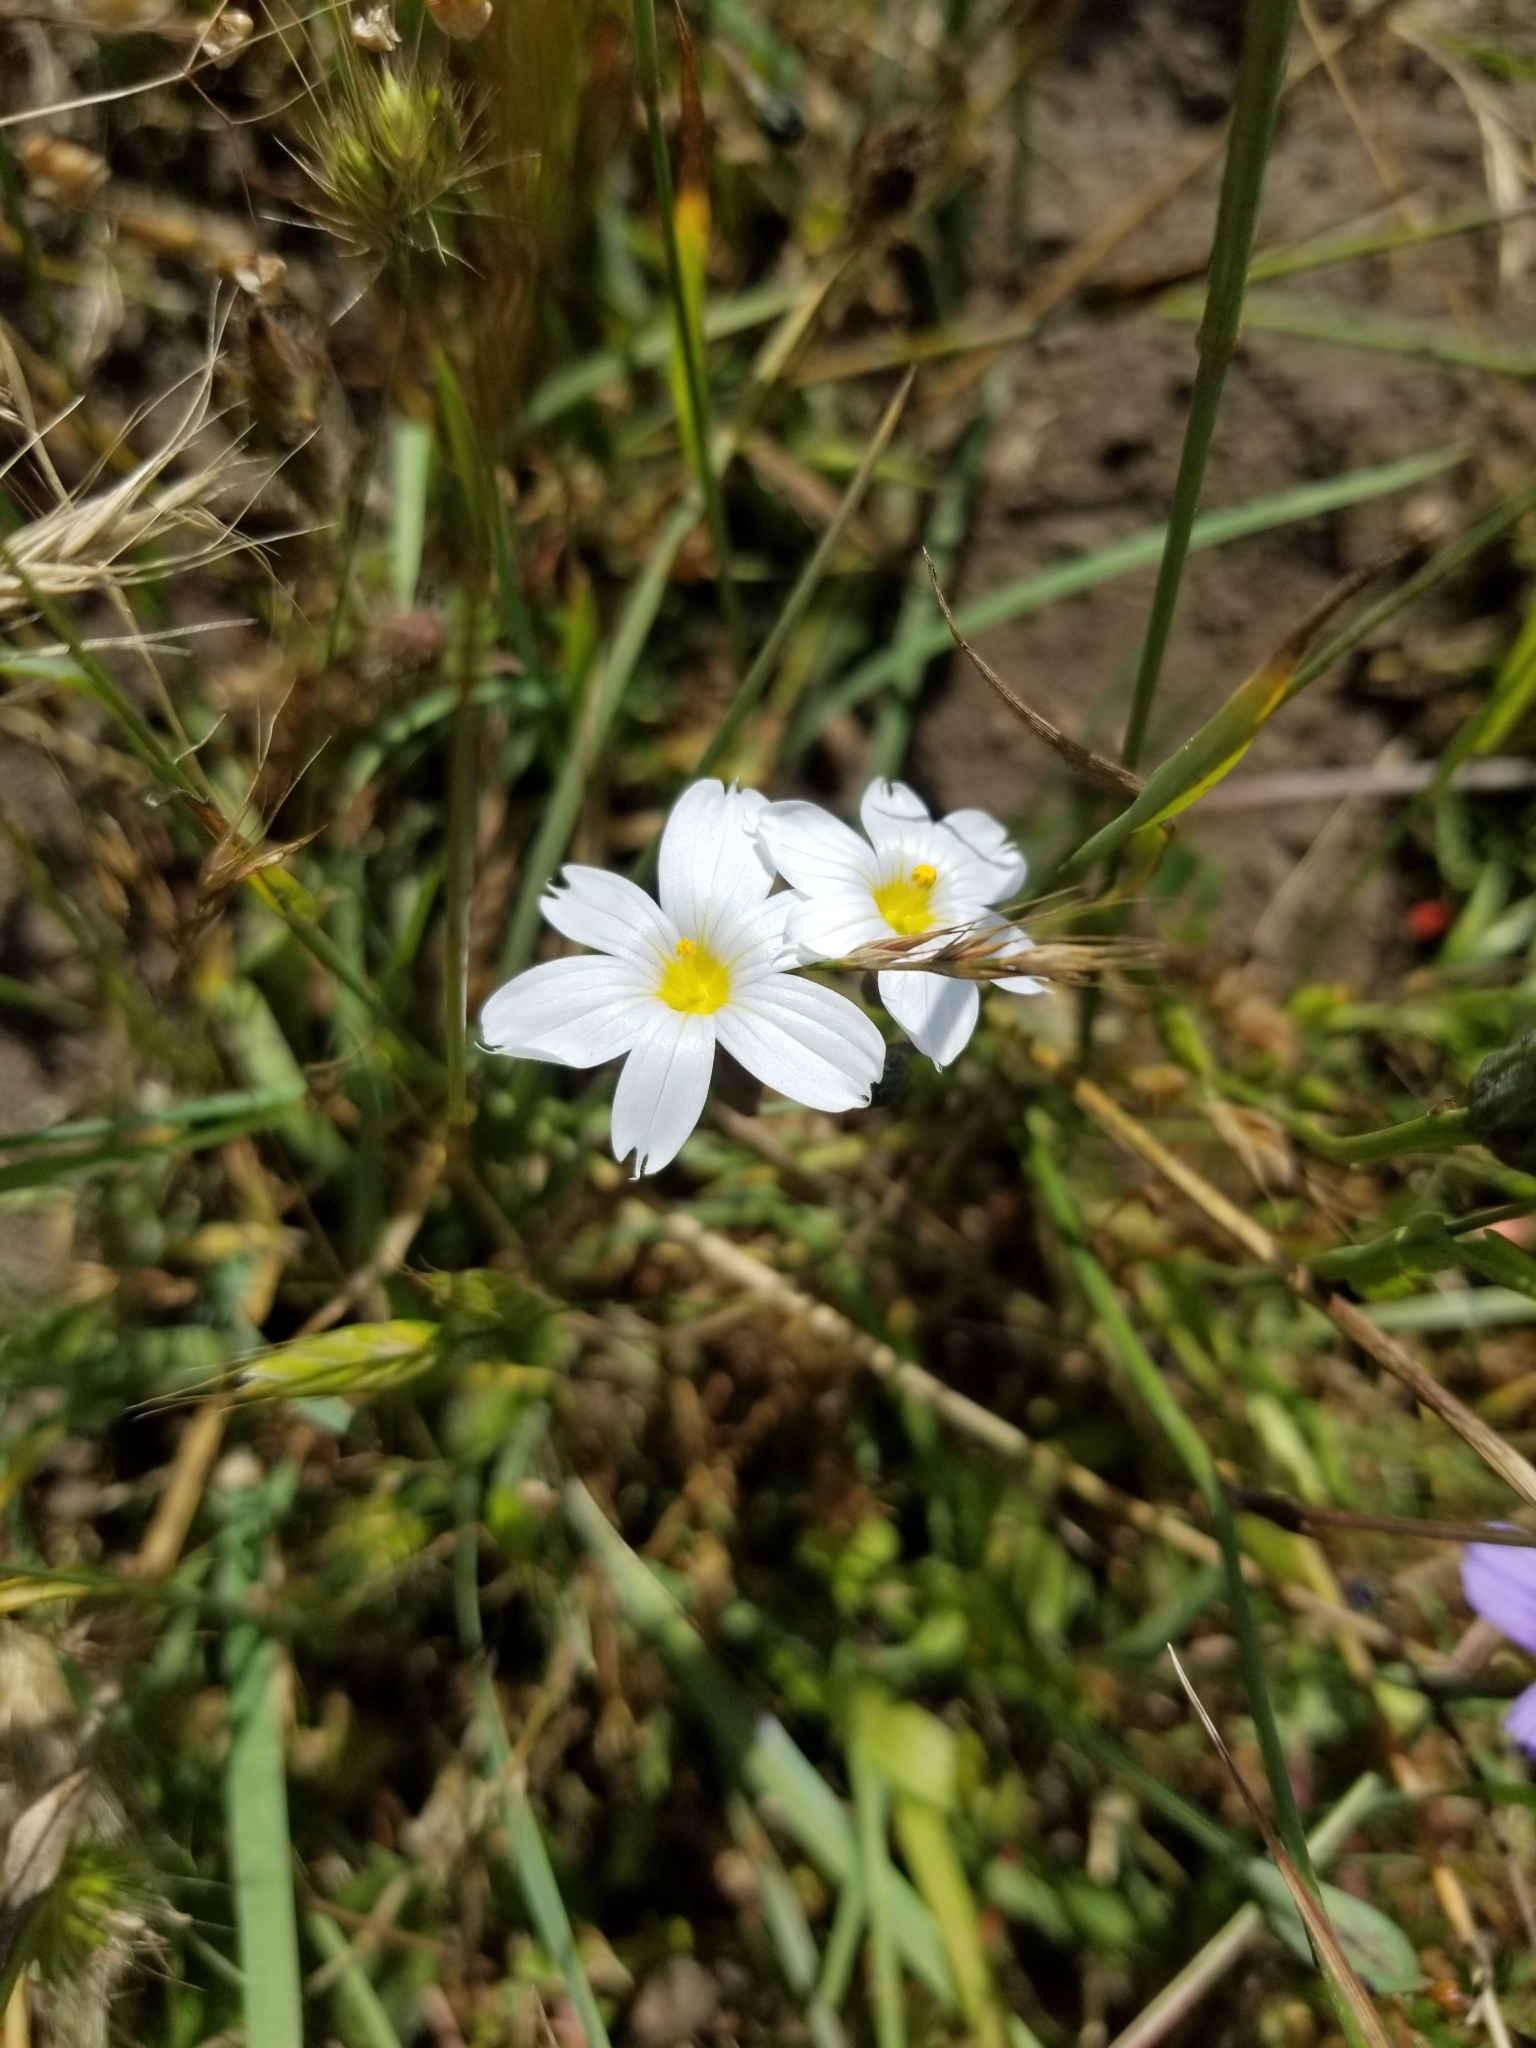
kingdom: Plantae
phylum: Tracheophyta
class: Liliopsida
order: Asparagales
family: Iridaceae
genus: Sisyrinchium
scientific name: Sisyrinchium bellum
